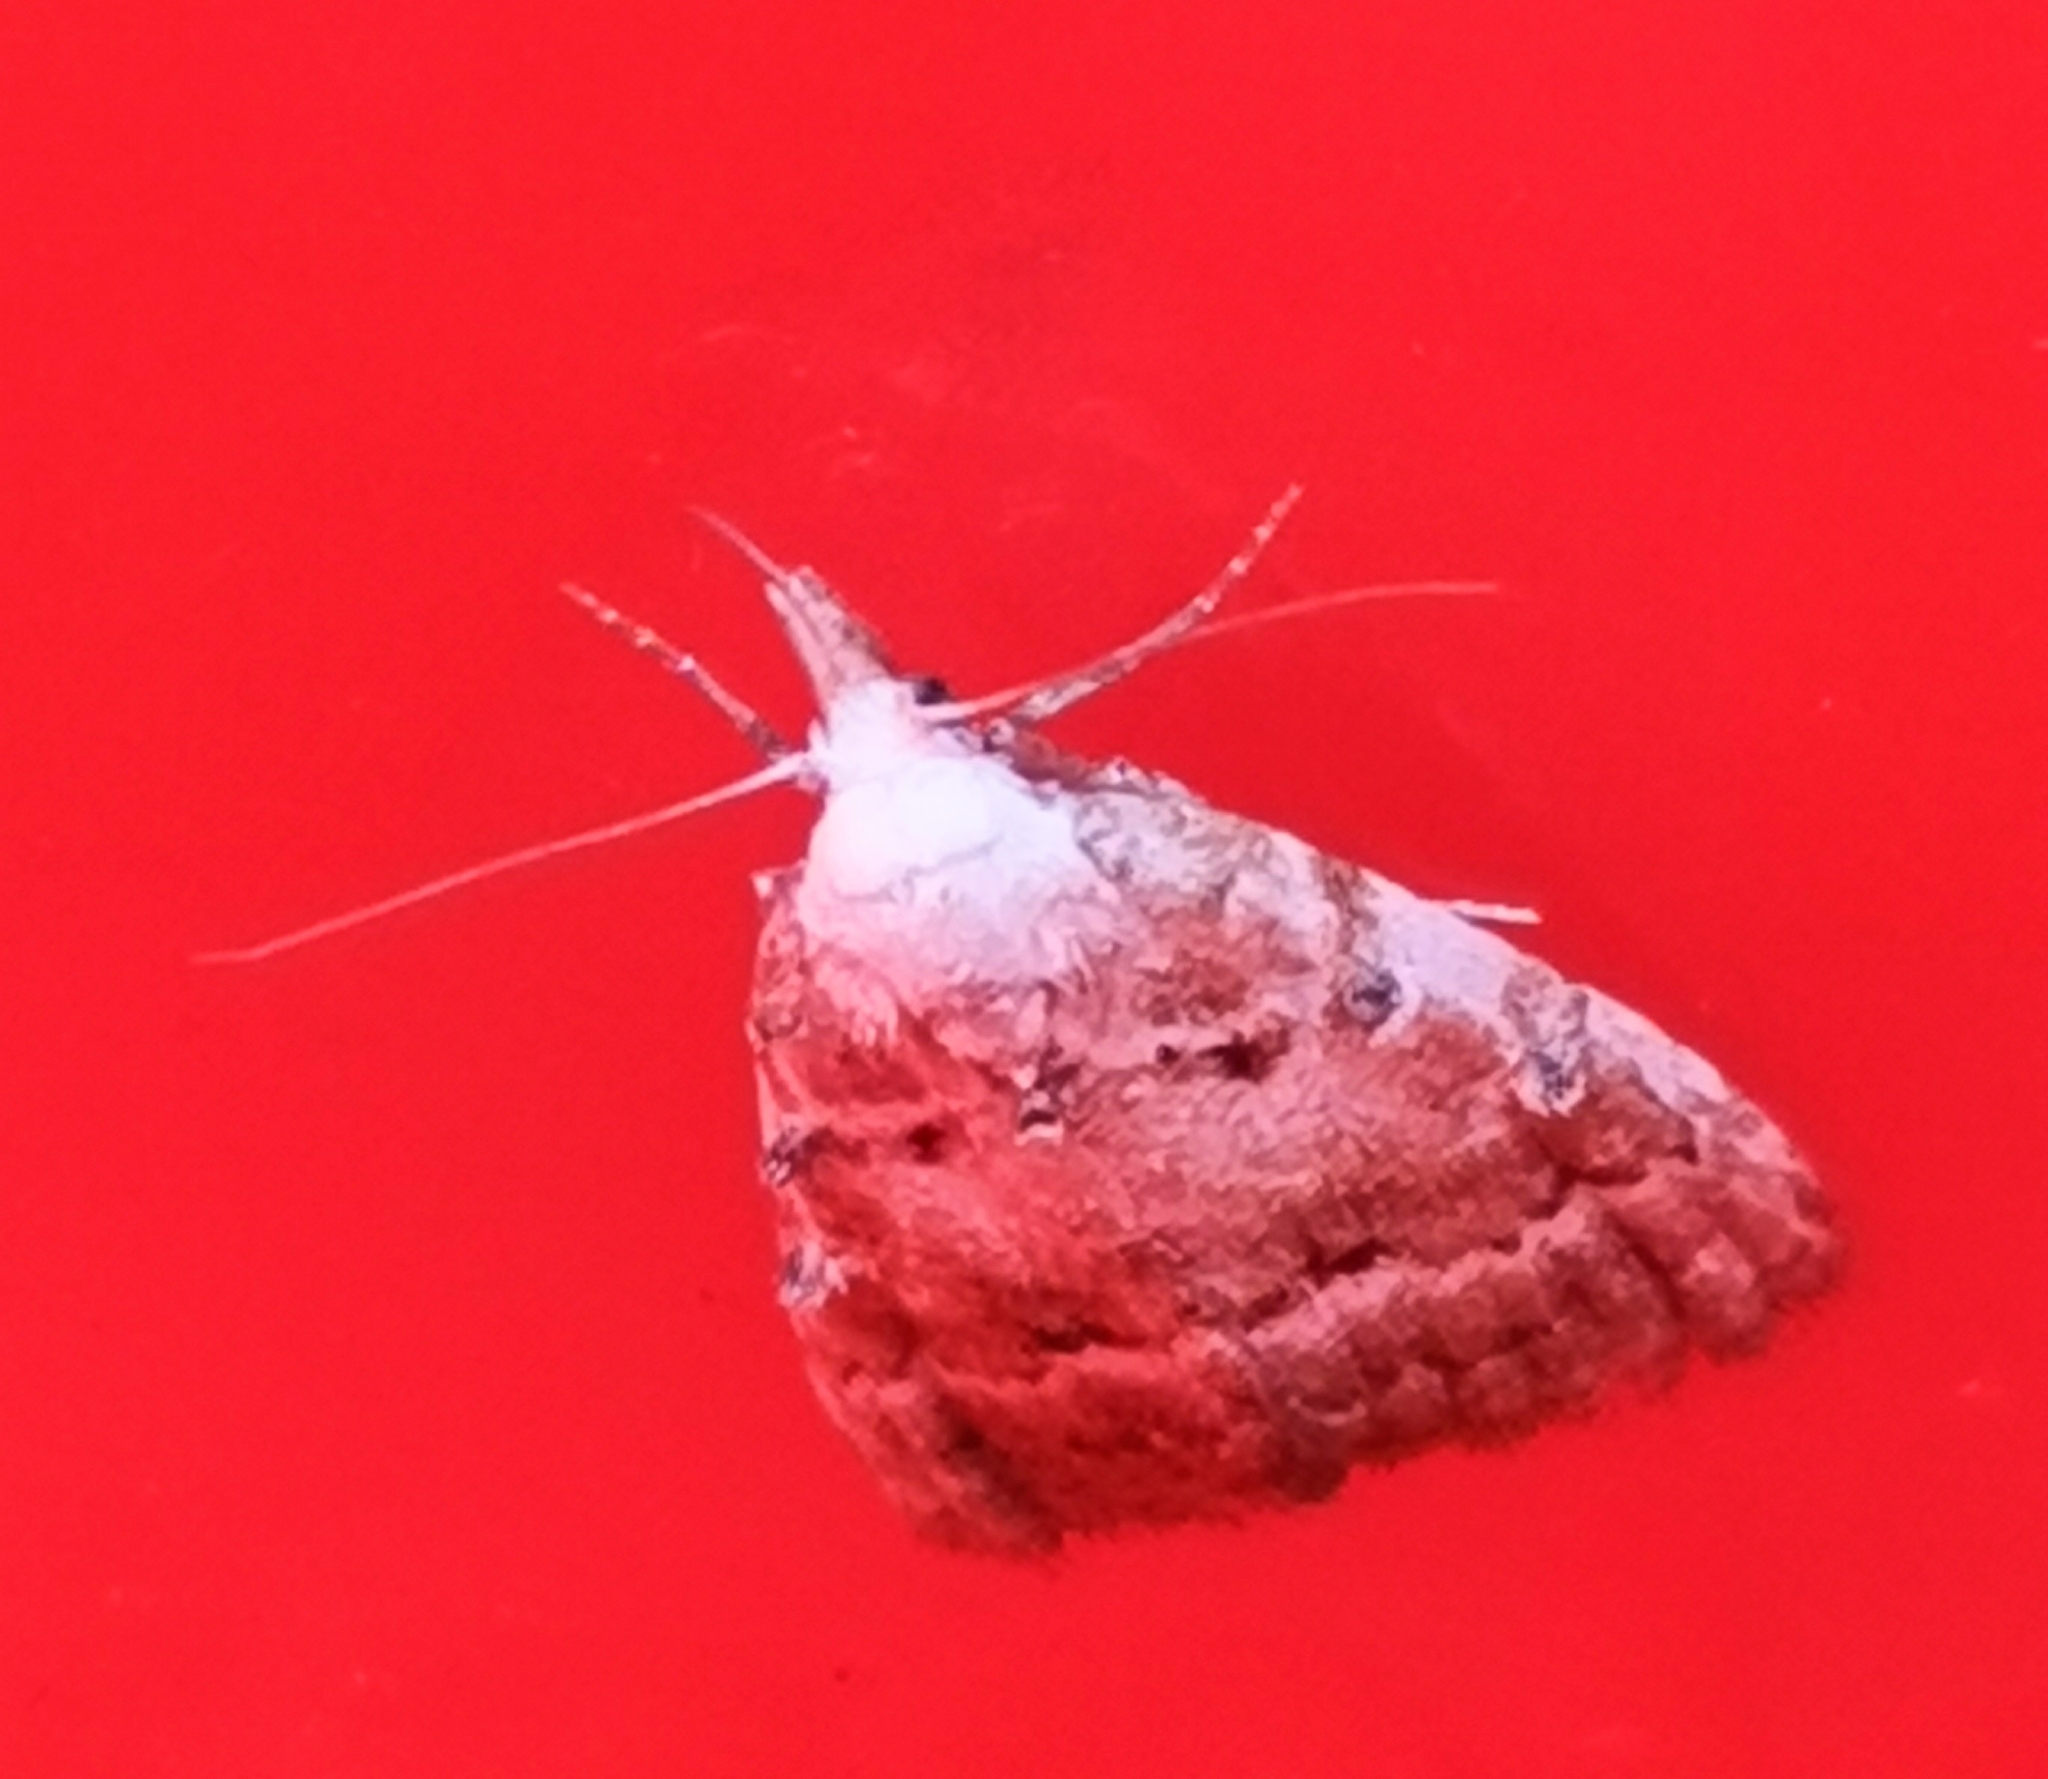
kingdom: Animalia
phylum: Arthropoda
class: Insecta
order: Lepidoptera
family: Nolidae
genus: Nola
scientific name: Nola aerugula
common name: Scarce black arches
